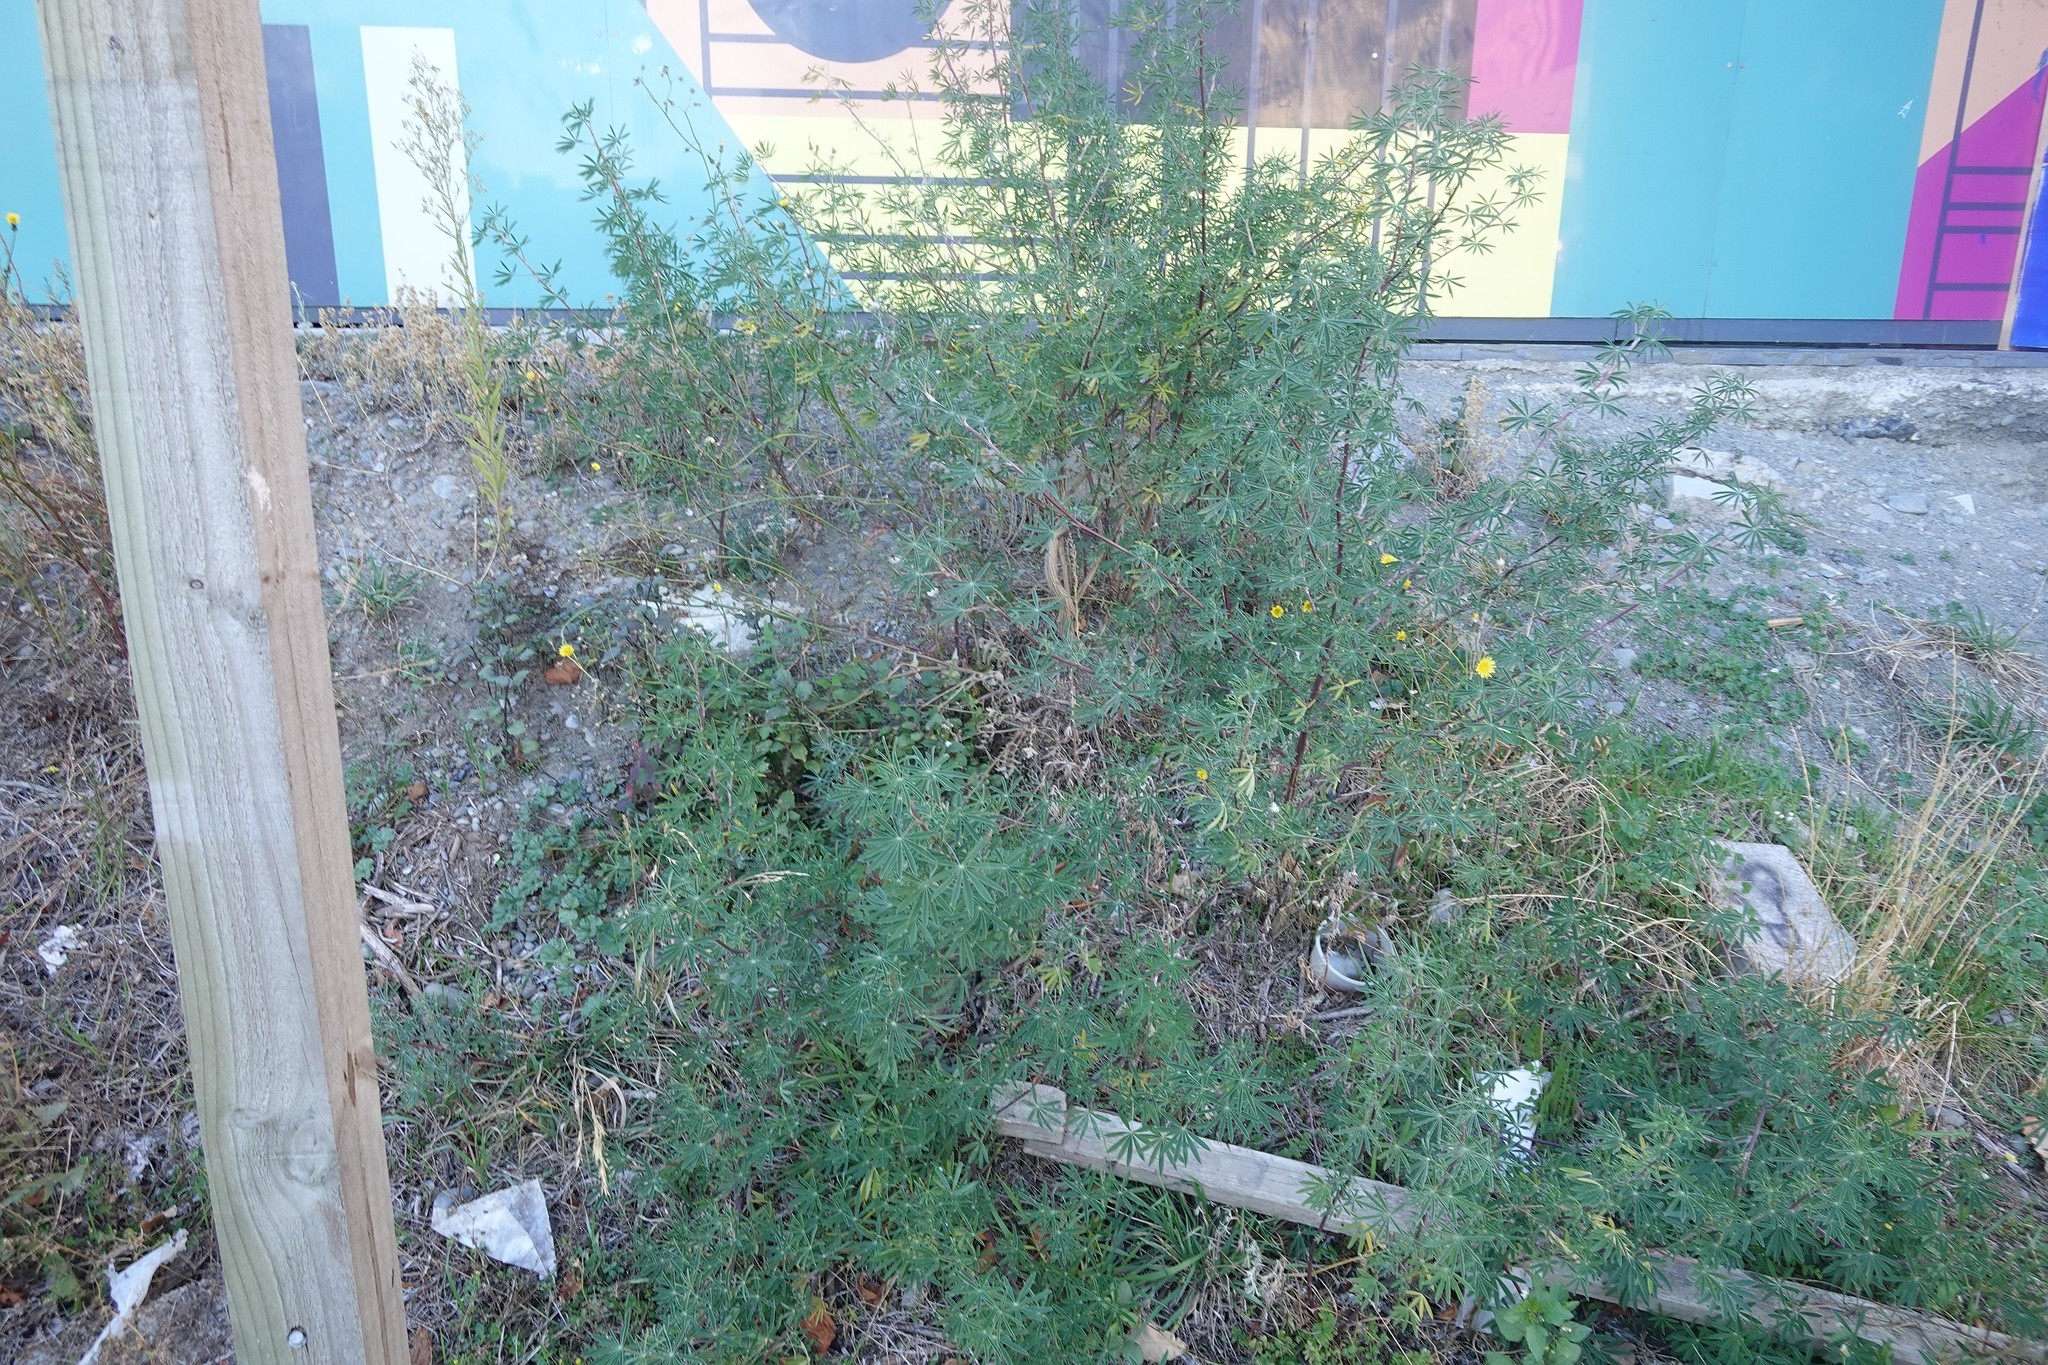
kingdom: Plantae
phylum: Tracheophyta
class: Magnoliopsida
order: Fabales
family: Fabaceae
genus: Lupinus
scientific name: Lupinus arboreus
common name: Yellow bush lupine
